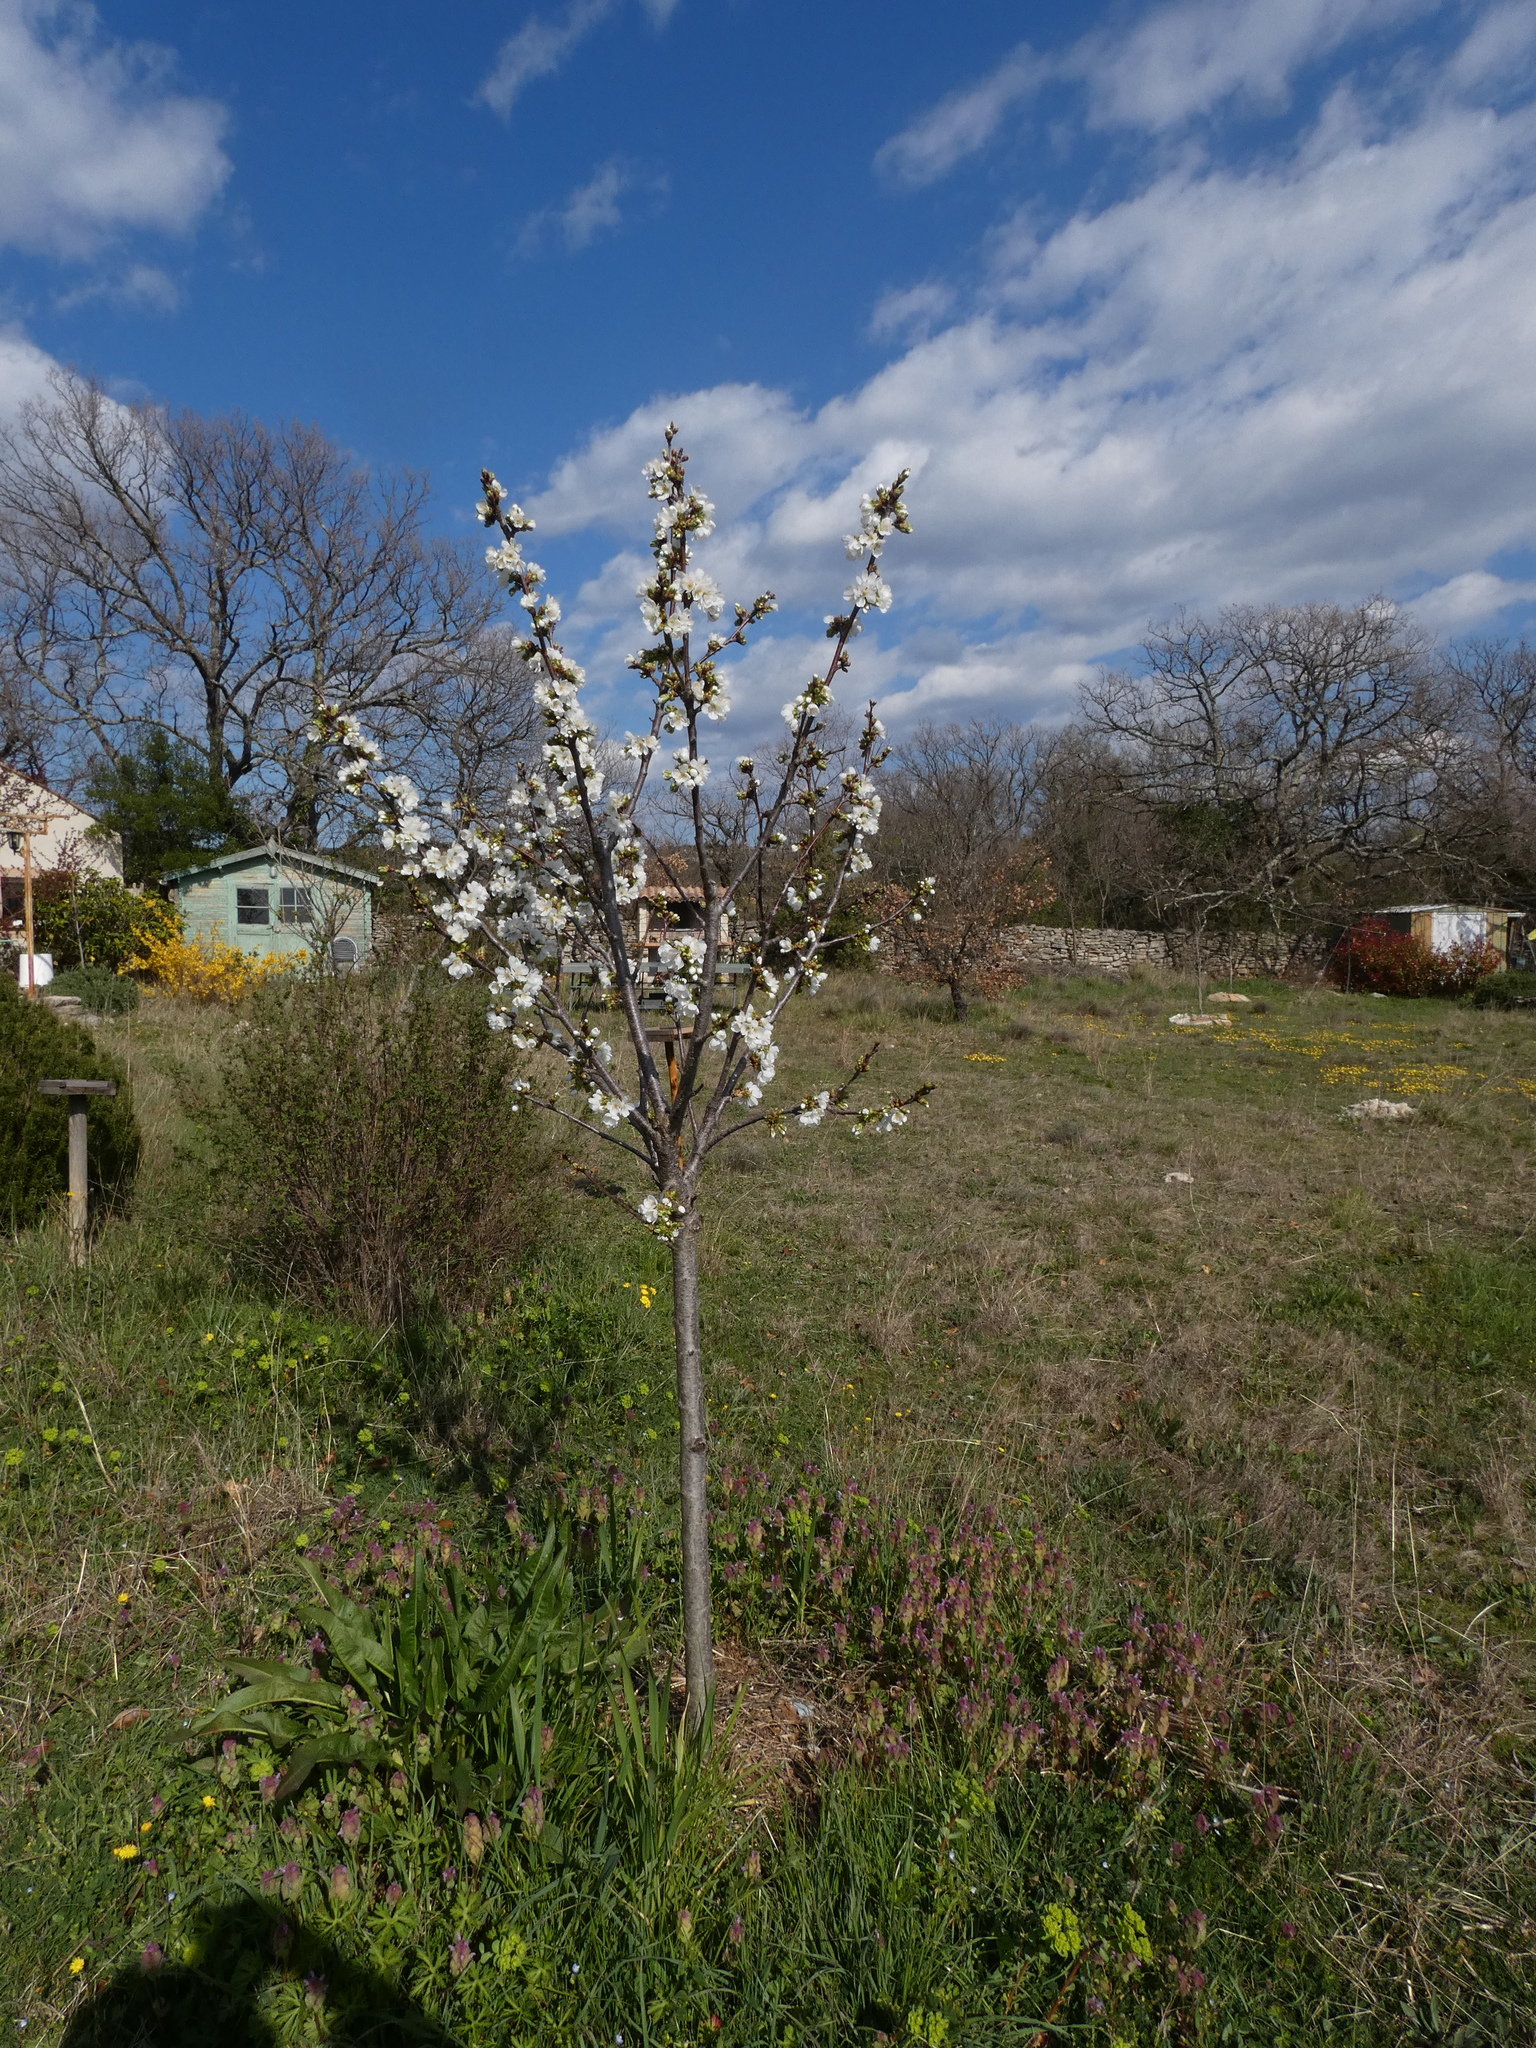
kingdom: Plantae
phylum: Tracheophyta
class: Magnoliopsida
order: Rosales
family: Rosaceae
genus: Prunus
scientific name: Prunus avium
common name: Sweet cherry
